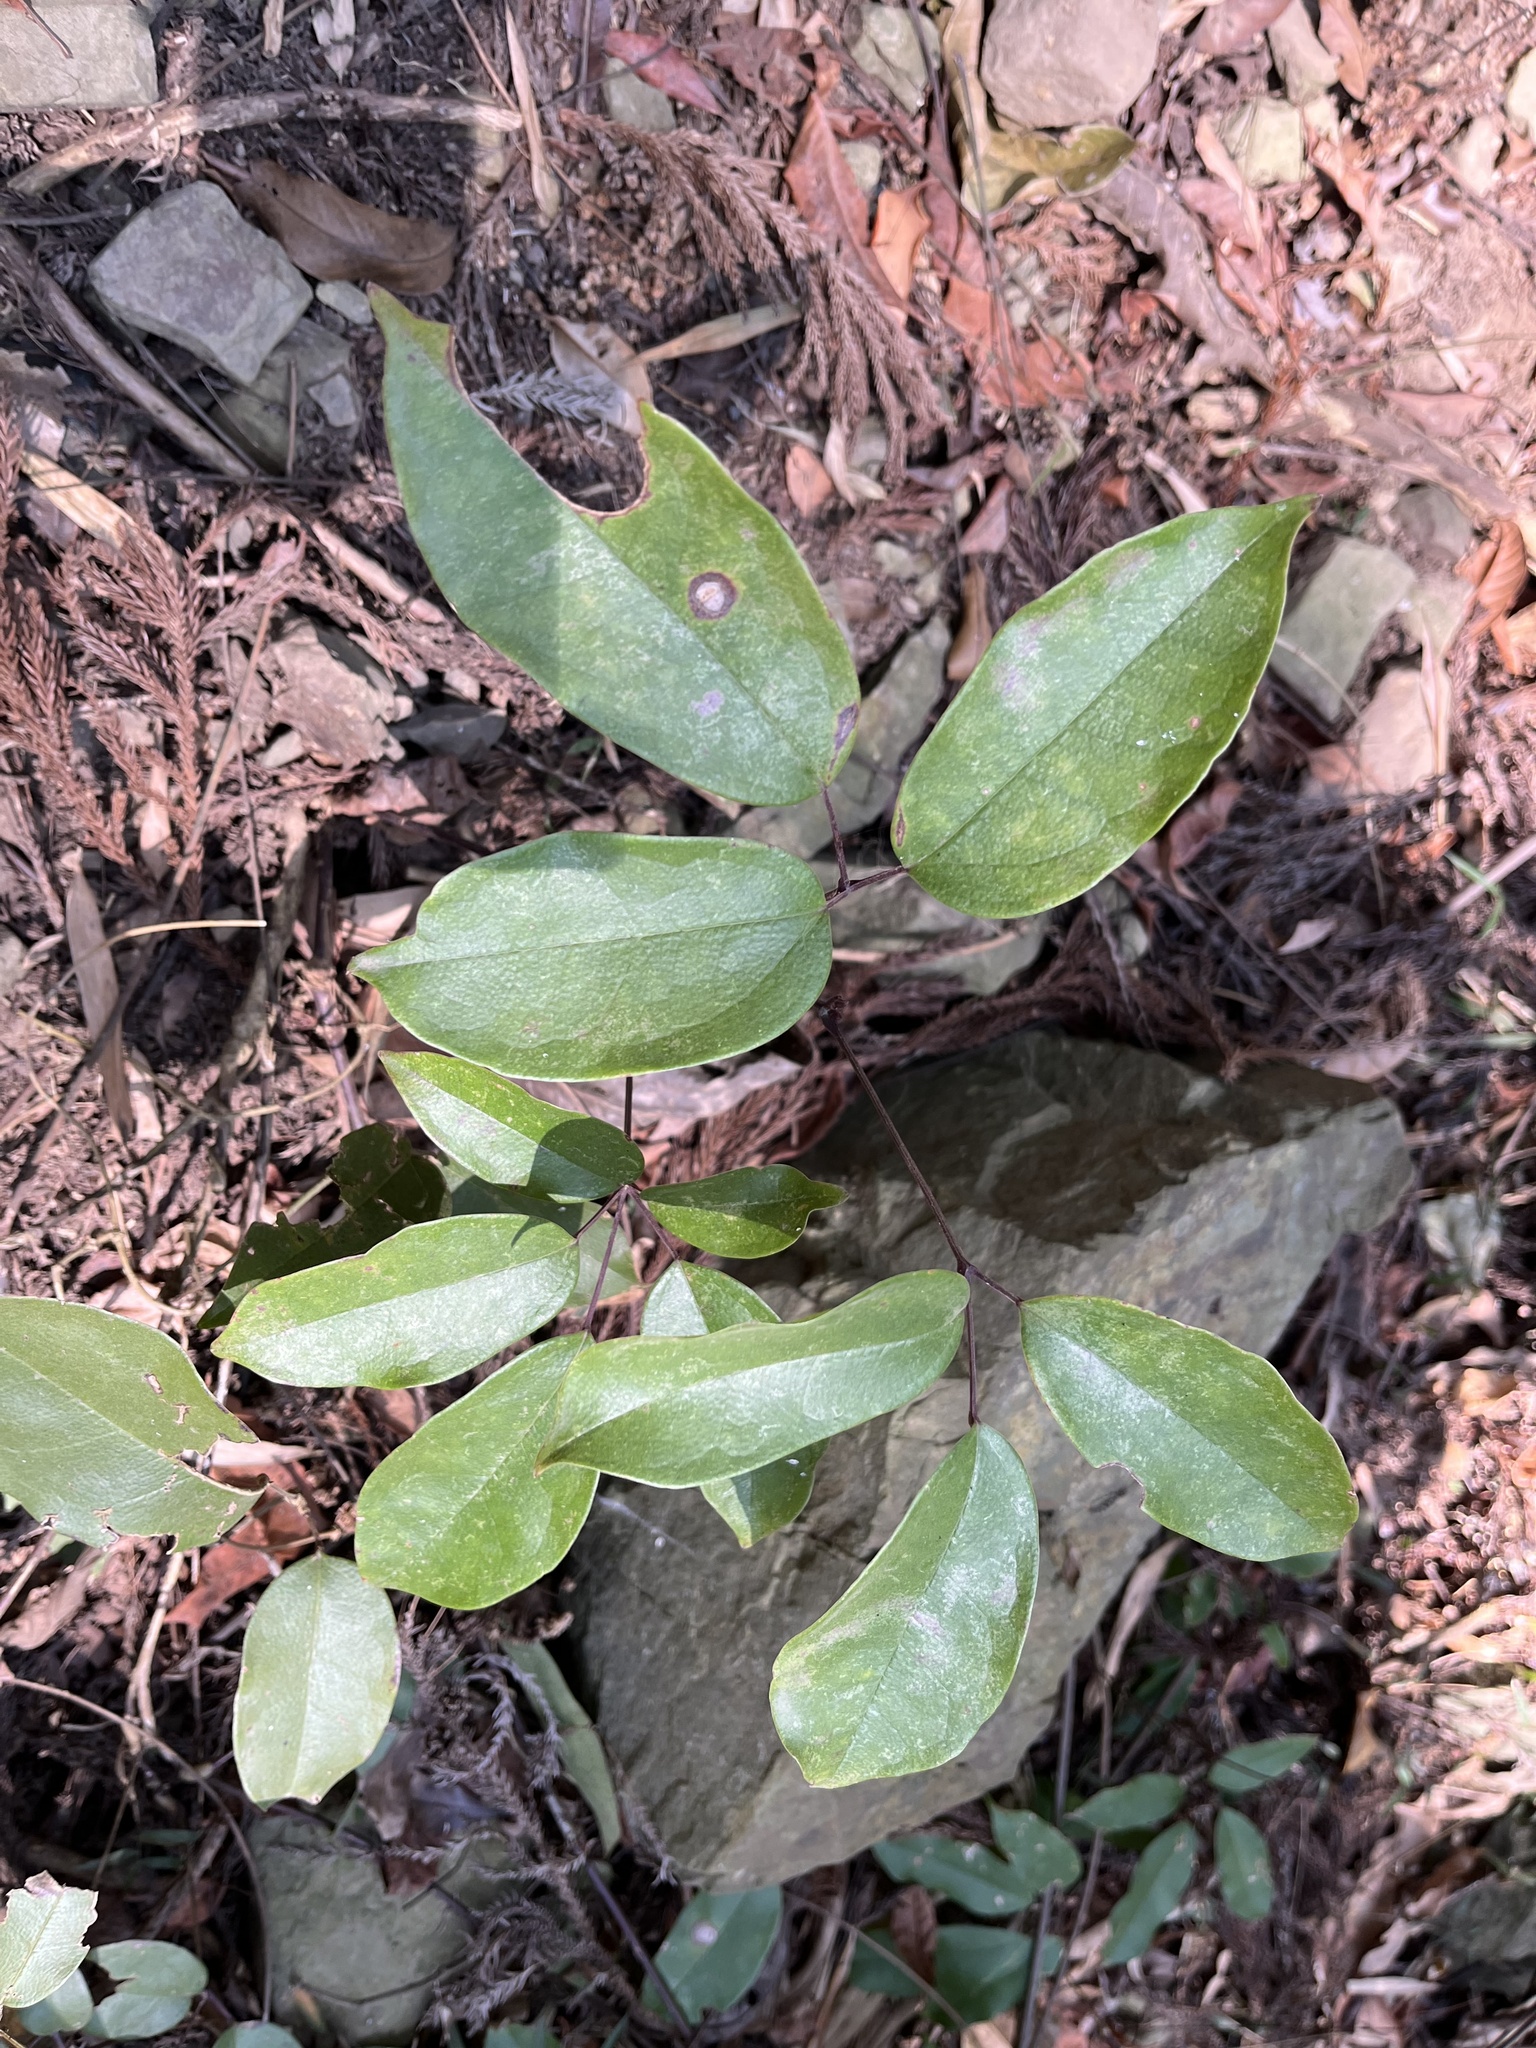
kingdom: Plantae
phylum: Tracheophyta
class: Magnoliopsida
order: Ranunculales
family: Lardizabalaceae
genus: Stauntonia
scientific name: Stauntonia obovatifoliola
